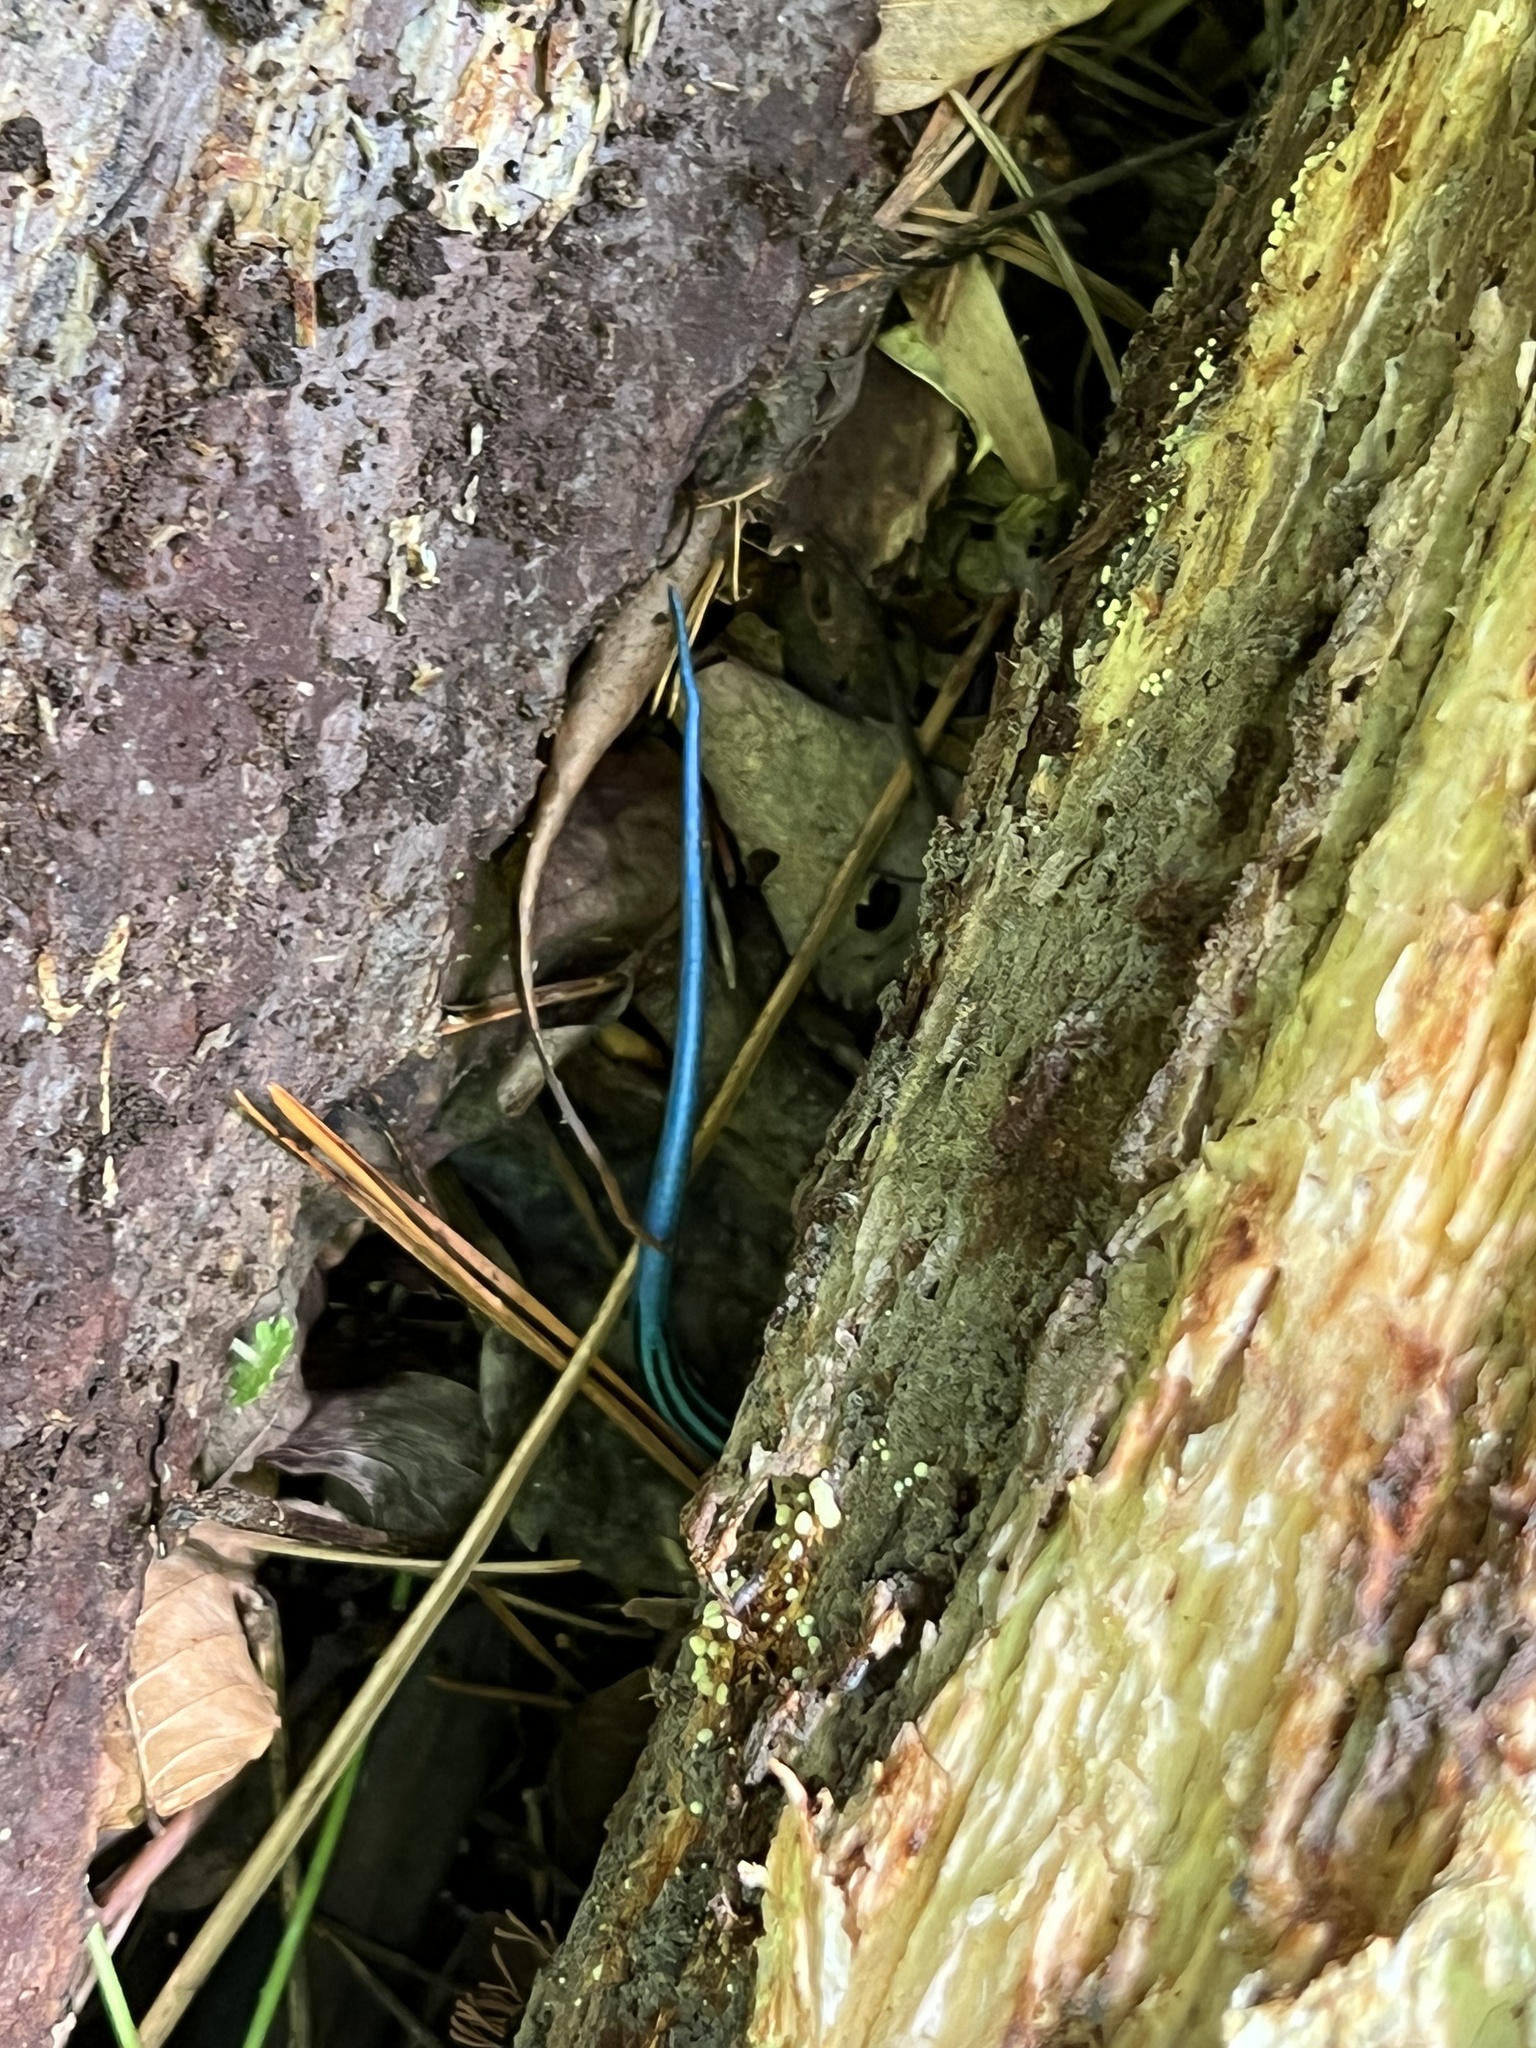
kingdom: Animalia
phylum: Chordata
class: Squamata
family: Scincidae
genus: Plestiodon
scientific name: Plestiodon
